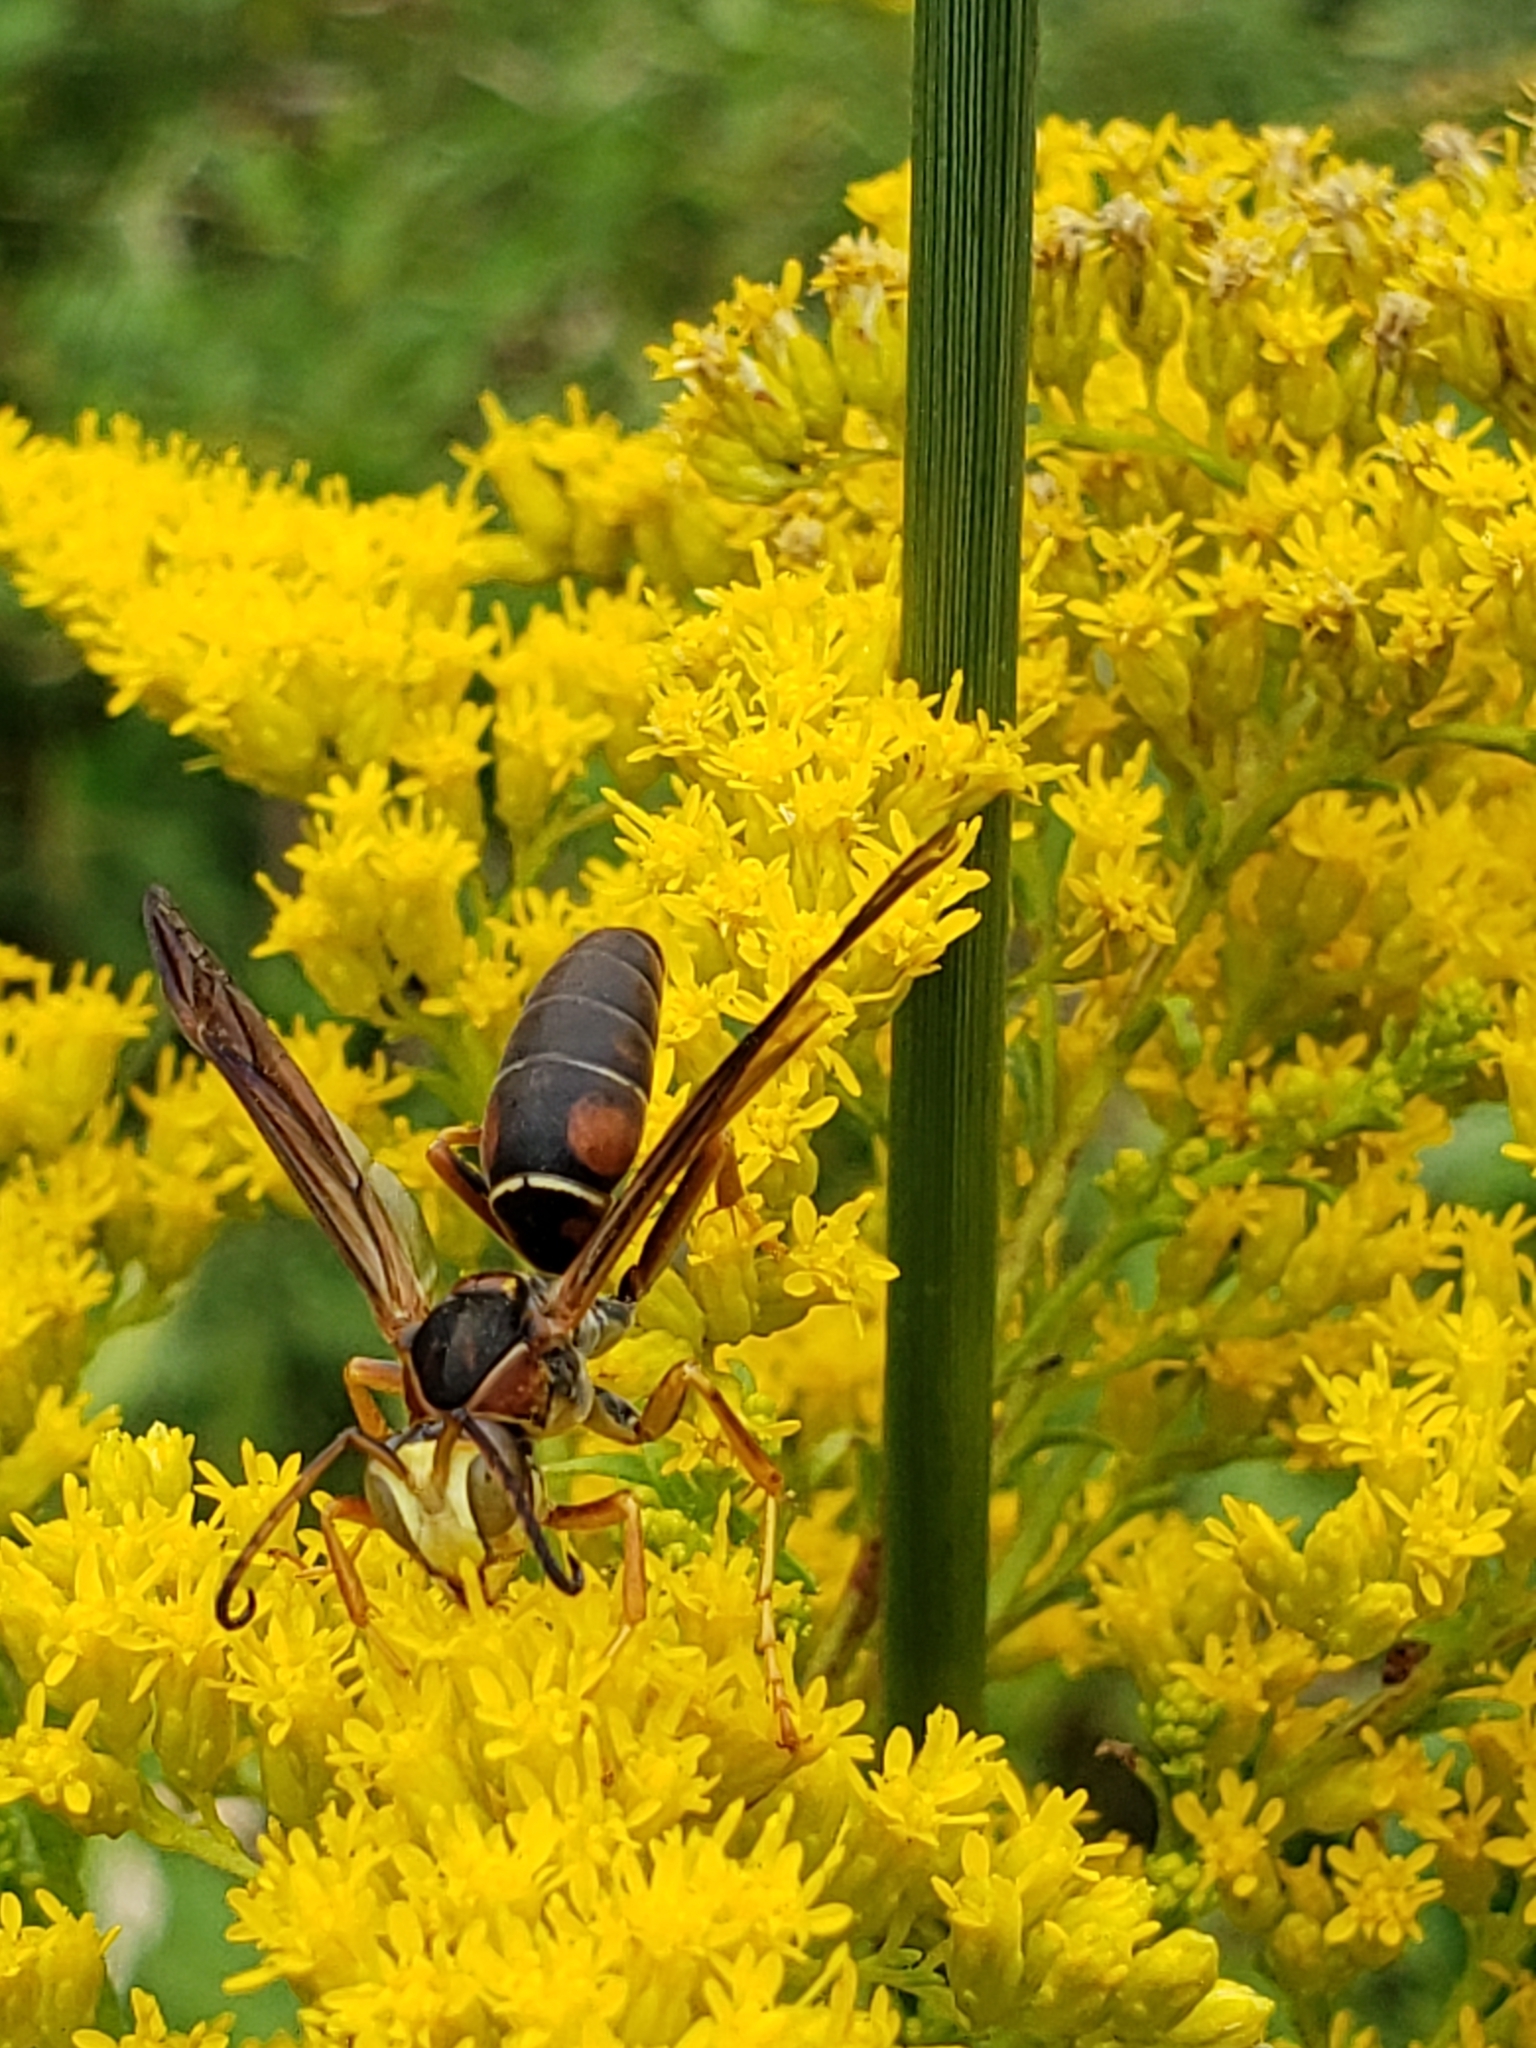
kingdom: Animalia
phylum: Arthropoda
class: Insecta
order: Hymenoptera
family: Eumenidae
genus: Polistes
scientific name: Polistes fuscatus
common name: Dark paper wasp
